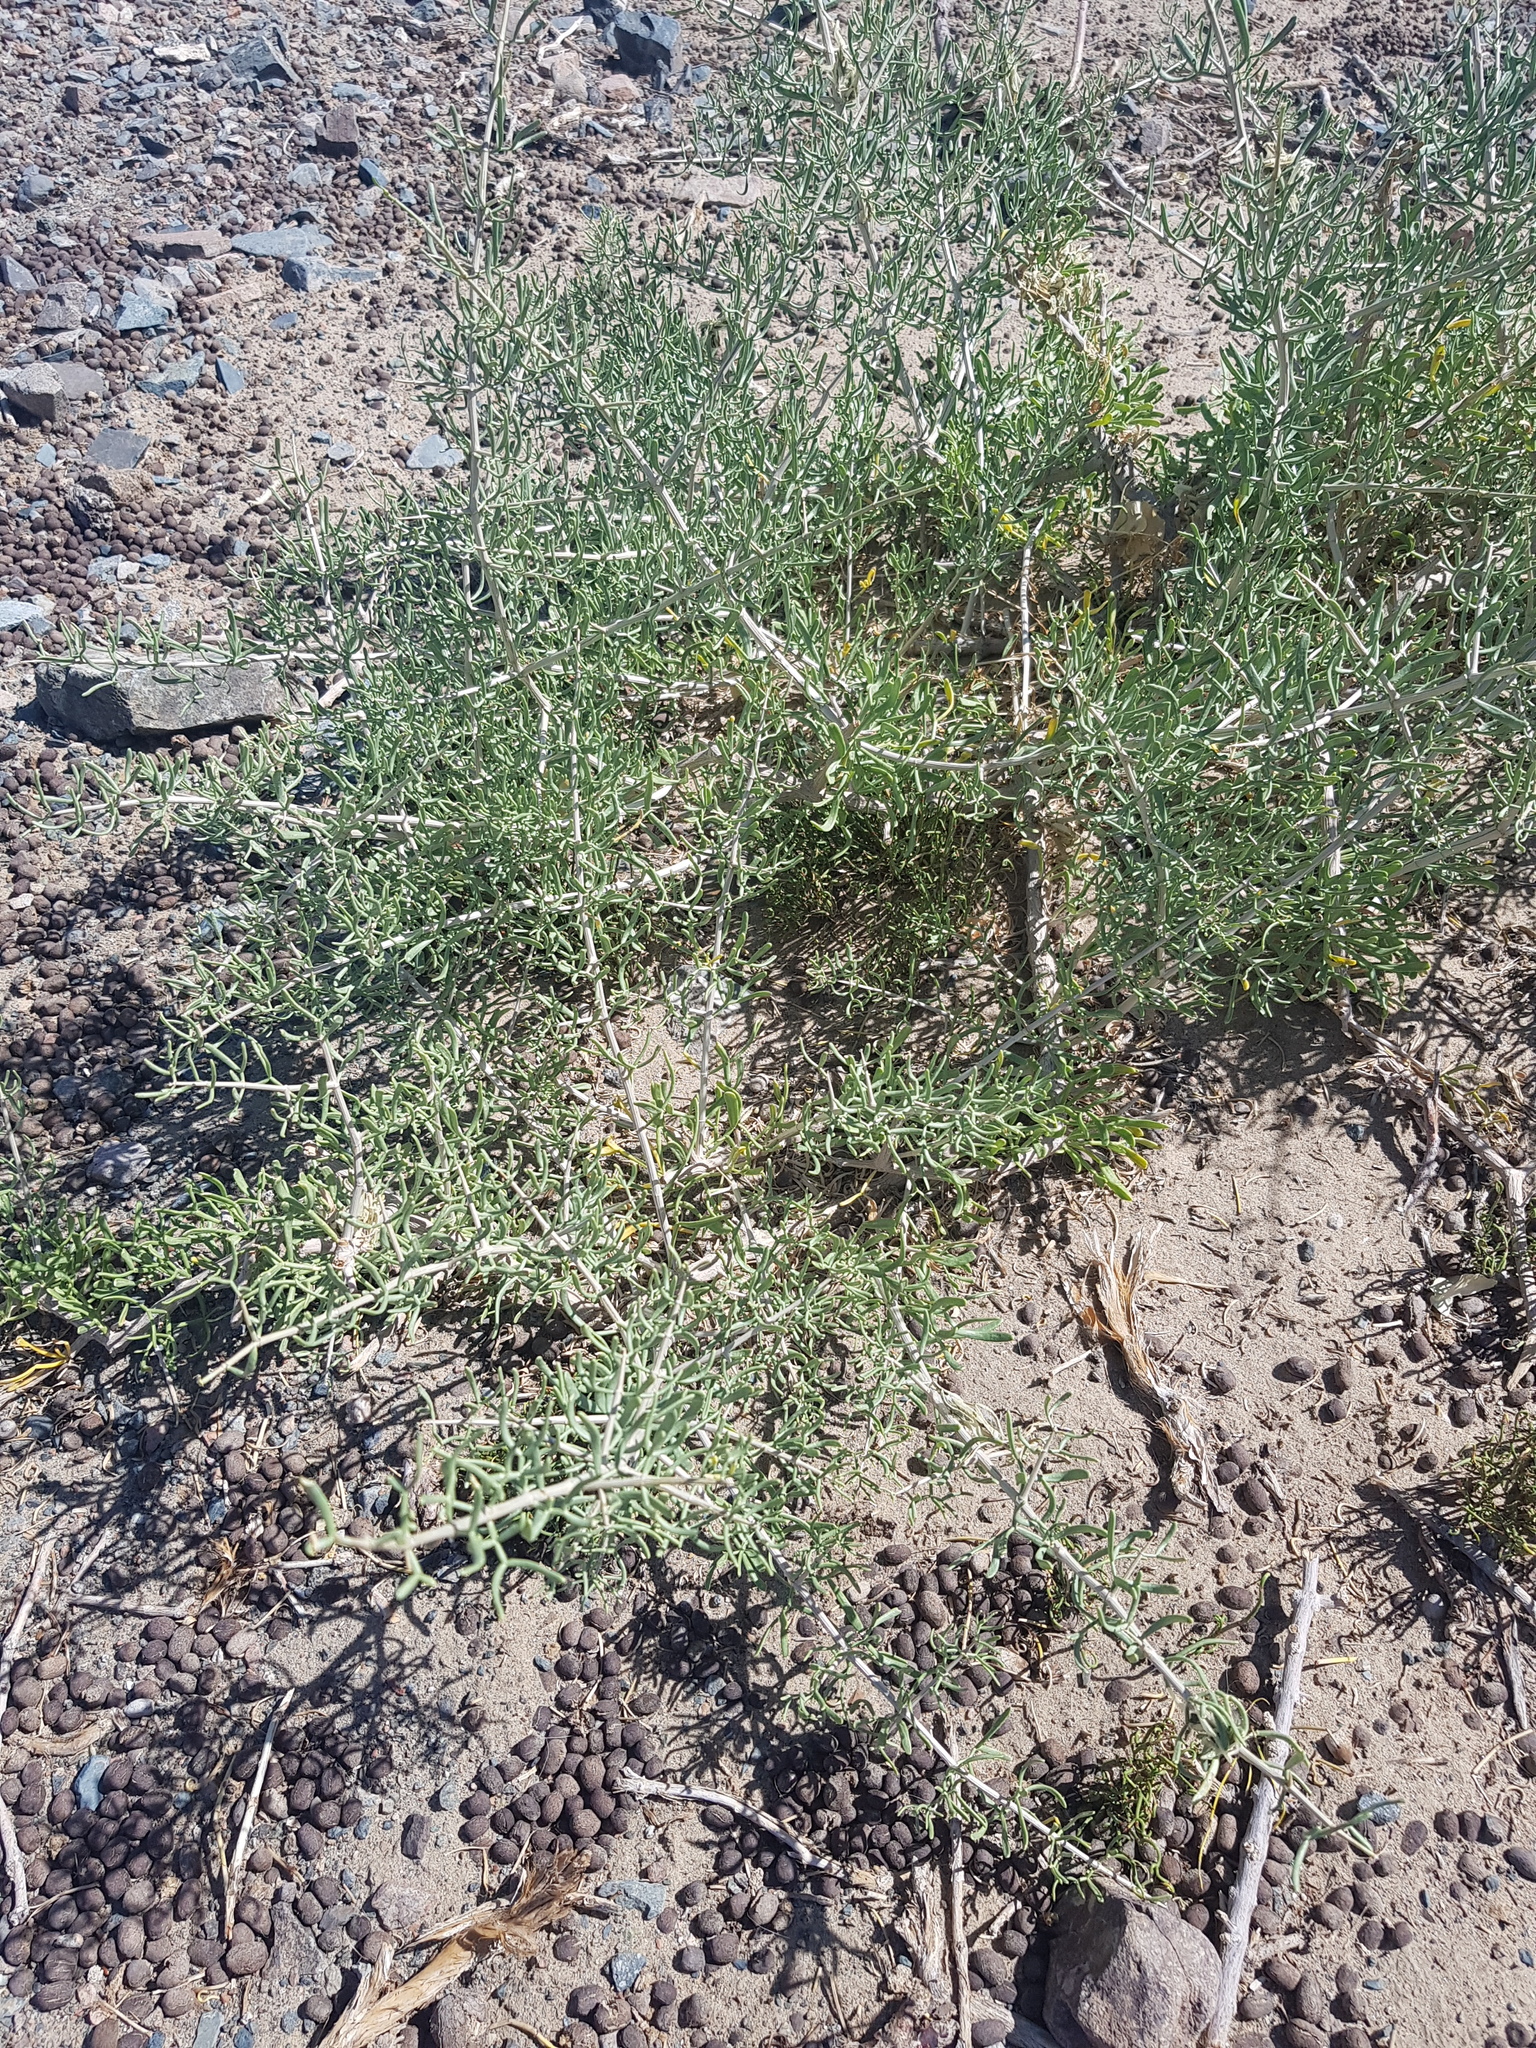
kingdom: Plantae
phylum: Tracheophyta
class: Magnoliopsida
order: Zygophyllales
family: Zygophyllaceae
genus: Zygophyllum
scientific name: Zygophyllum xanthoxylum
